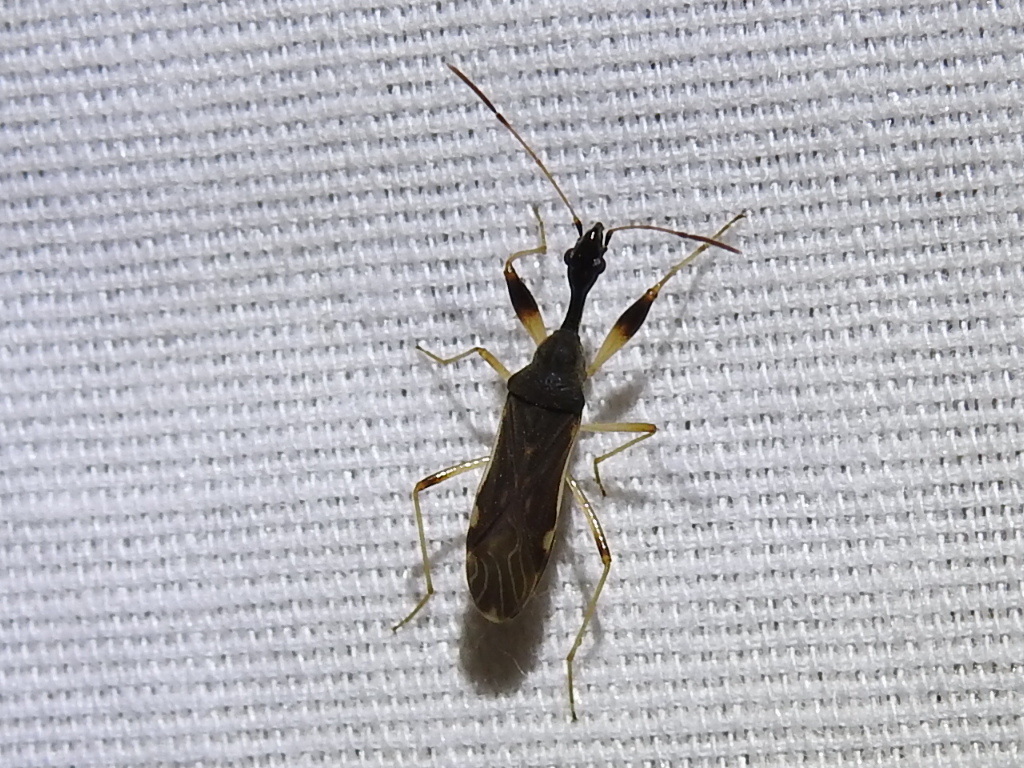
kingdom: Animalia
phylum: Arthropoda
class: Insecta
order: Hemiptera
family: Rhyparochromidae
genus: Myodocha
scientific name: Myodocha serripes
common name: Long-necked seed bug
